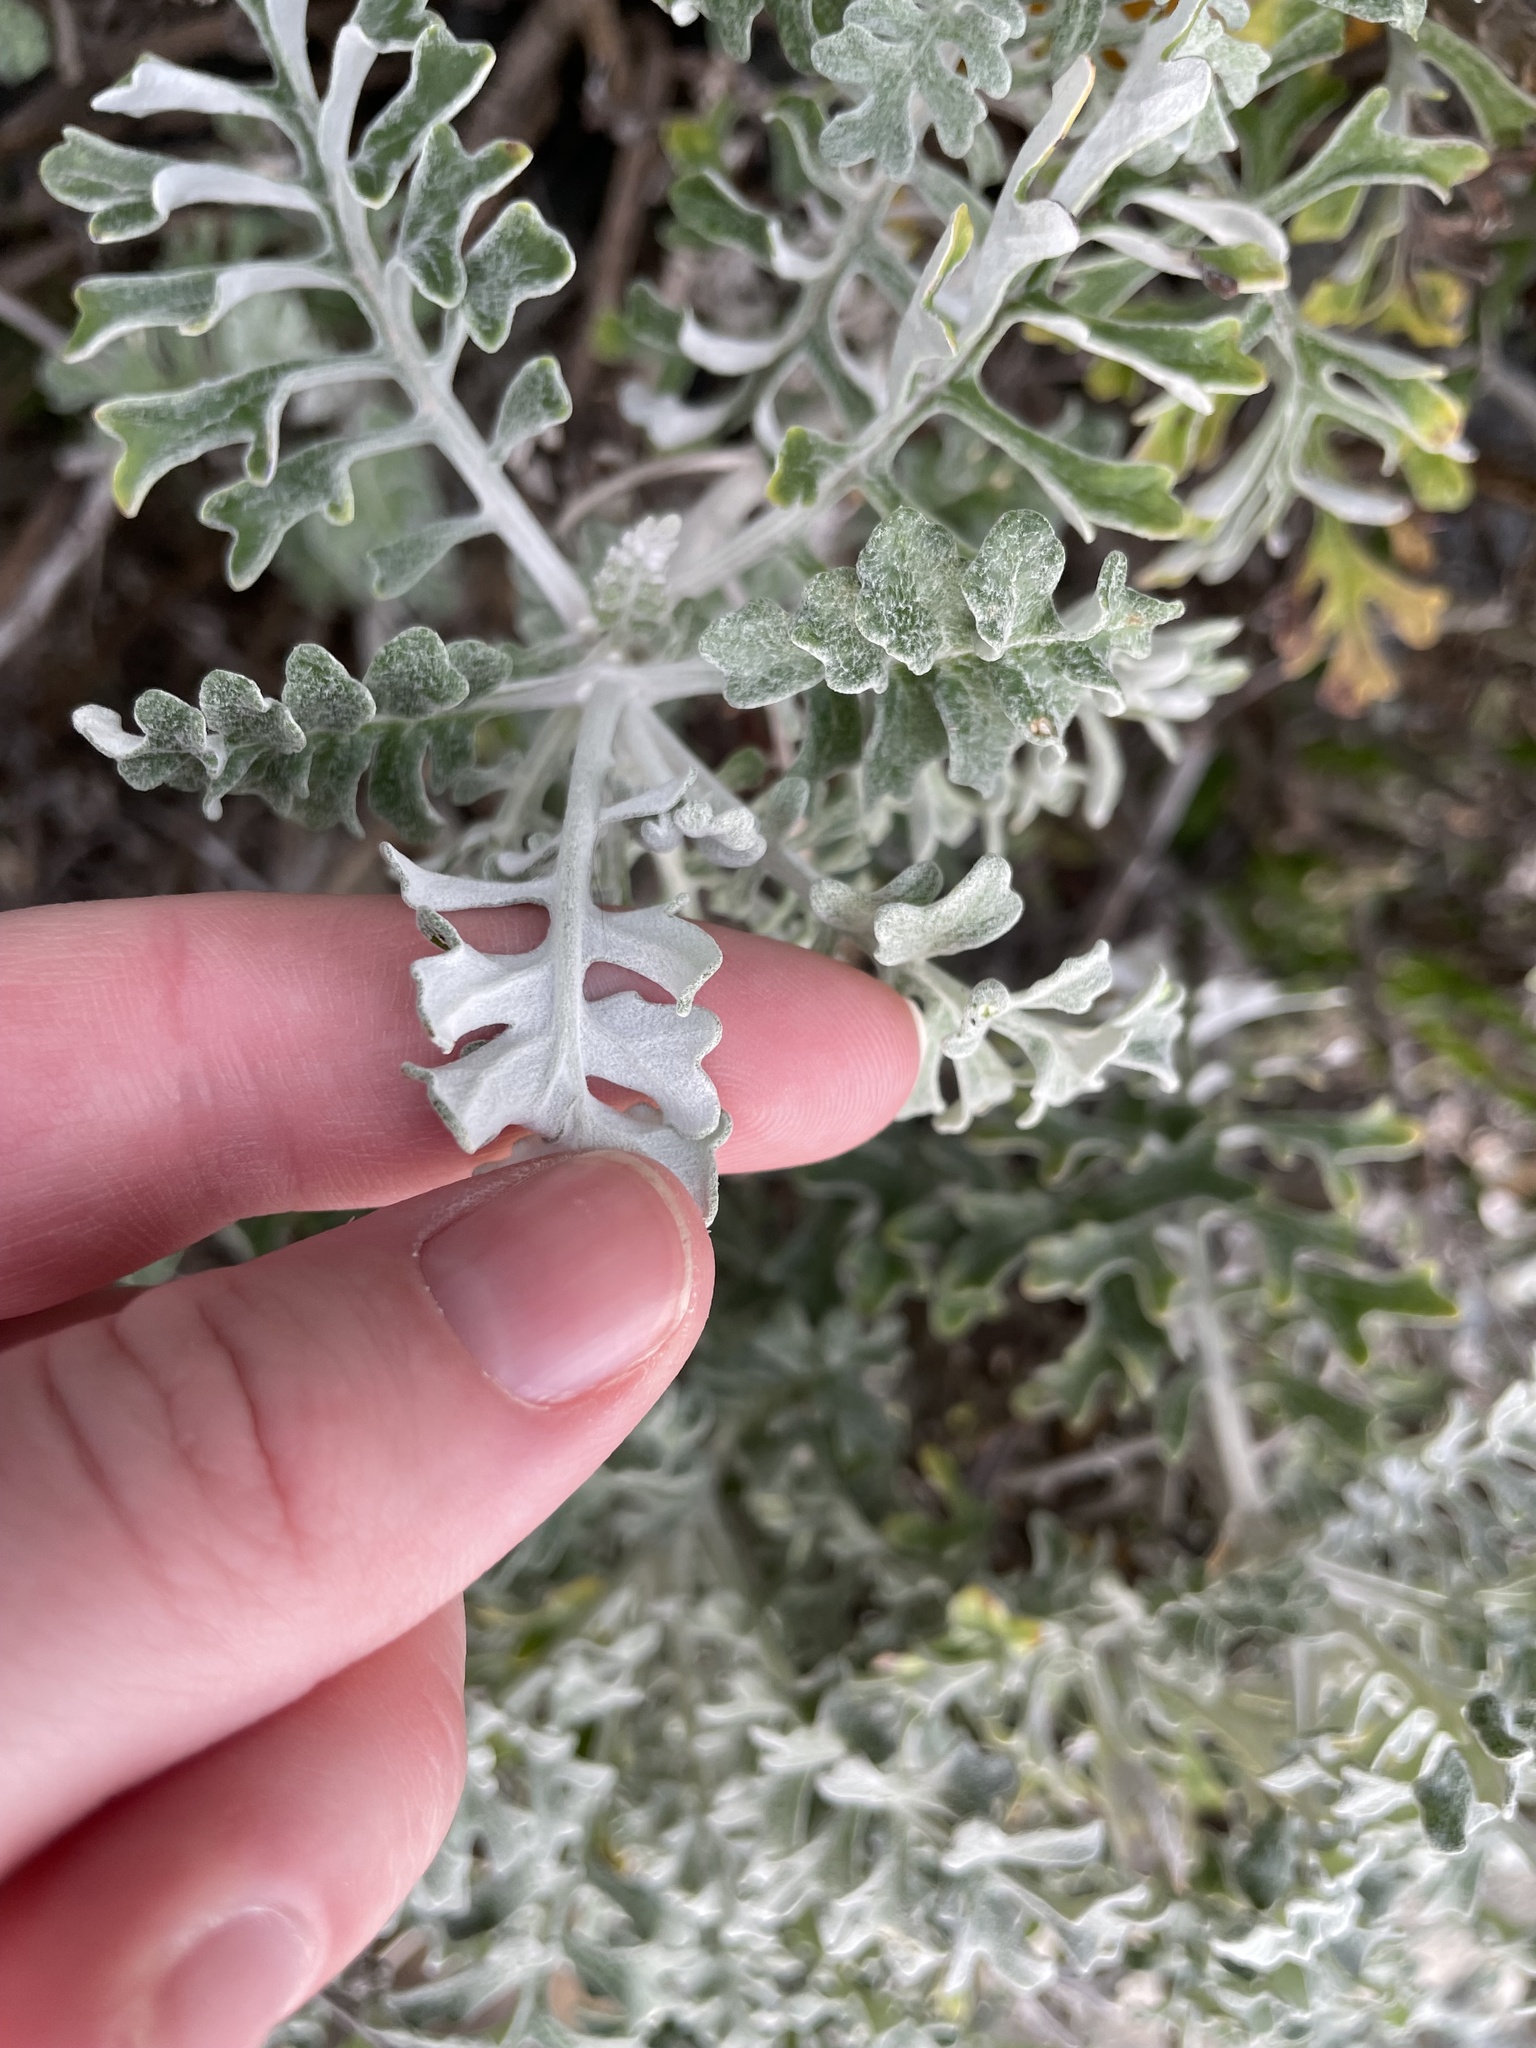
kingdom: Plantae
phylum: Tracheophyta
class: Magnoliopsida
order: Asterales
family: Asteraceae
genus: Jacobaea
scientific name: Jacobaea maritima
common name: Silver ragwort
